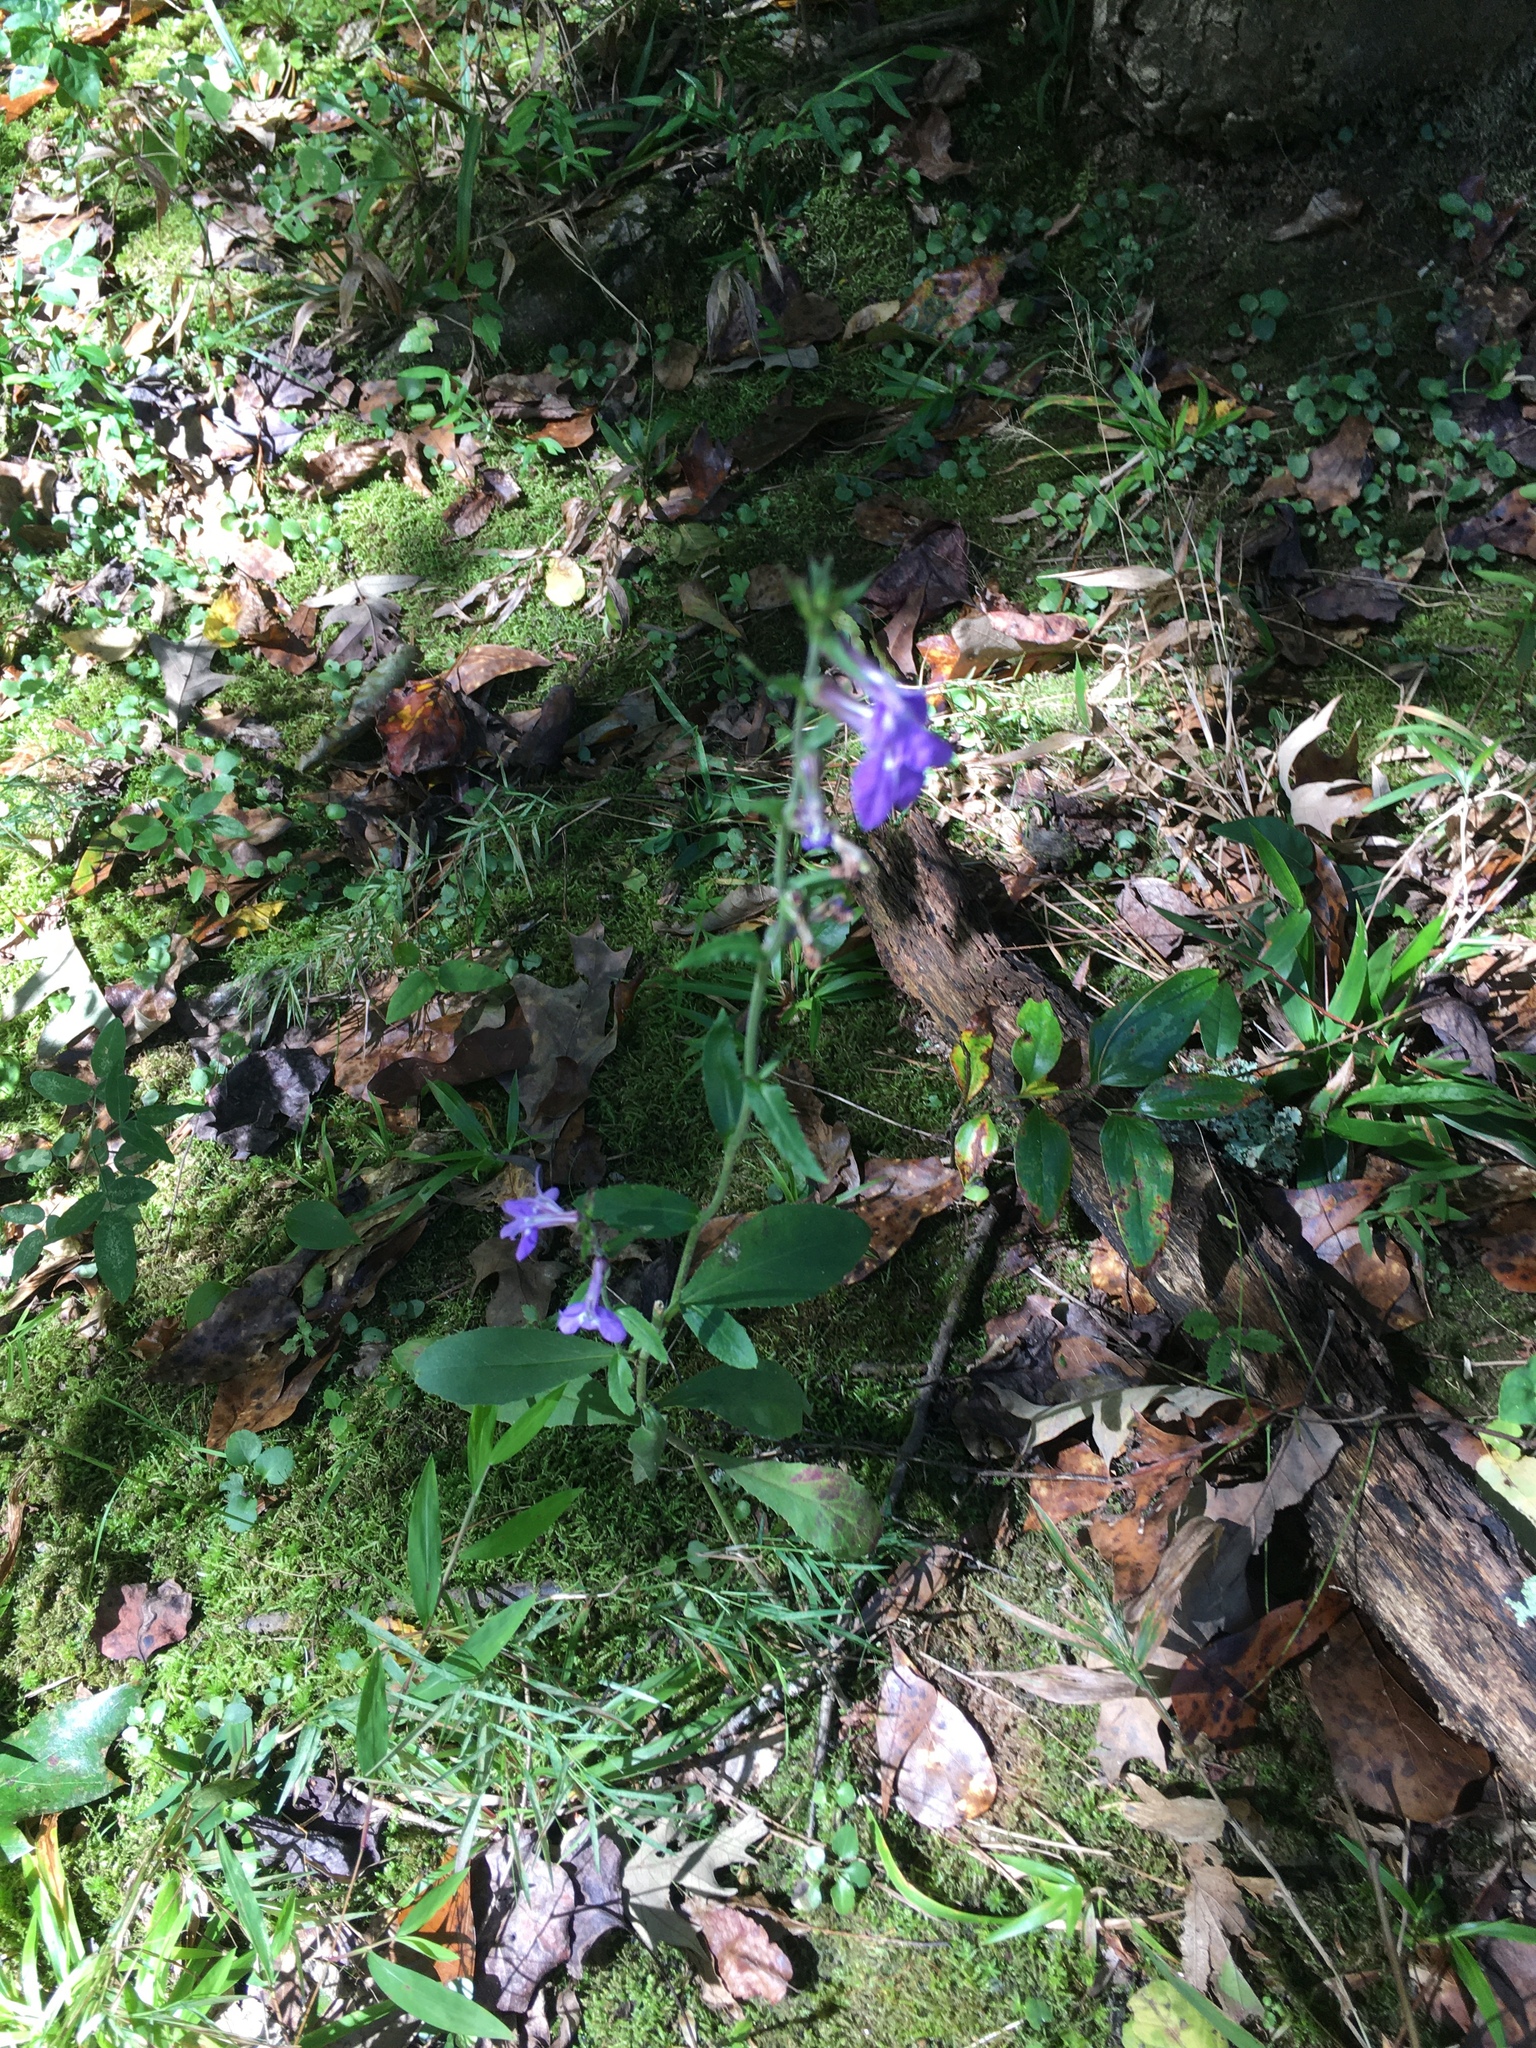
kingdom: Plantae
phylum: Tracheophyta
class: Magnoliopsida
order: Asterales
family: Campanulaceae
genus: Lobelia
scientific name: Lobelia puberula
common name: Purple dewdrop
